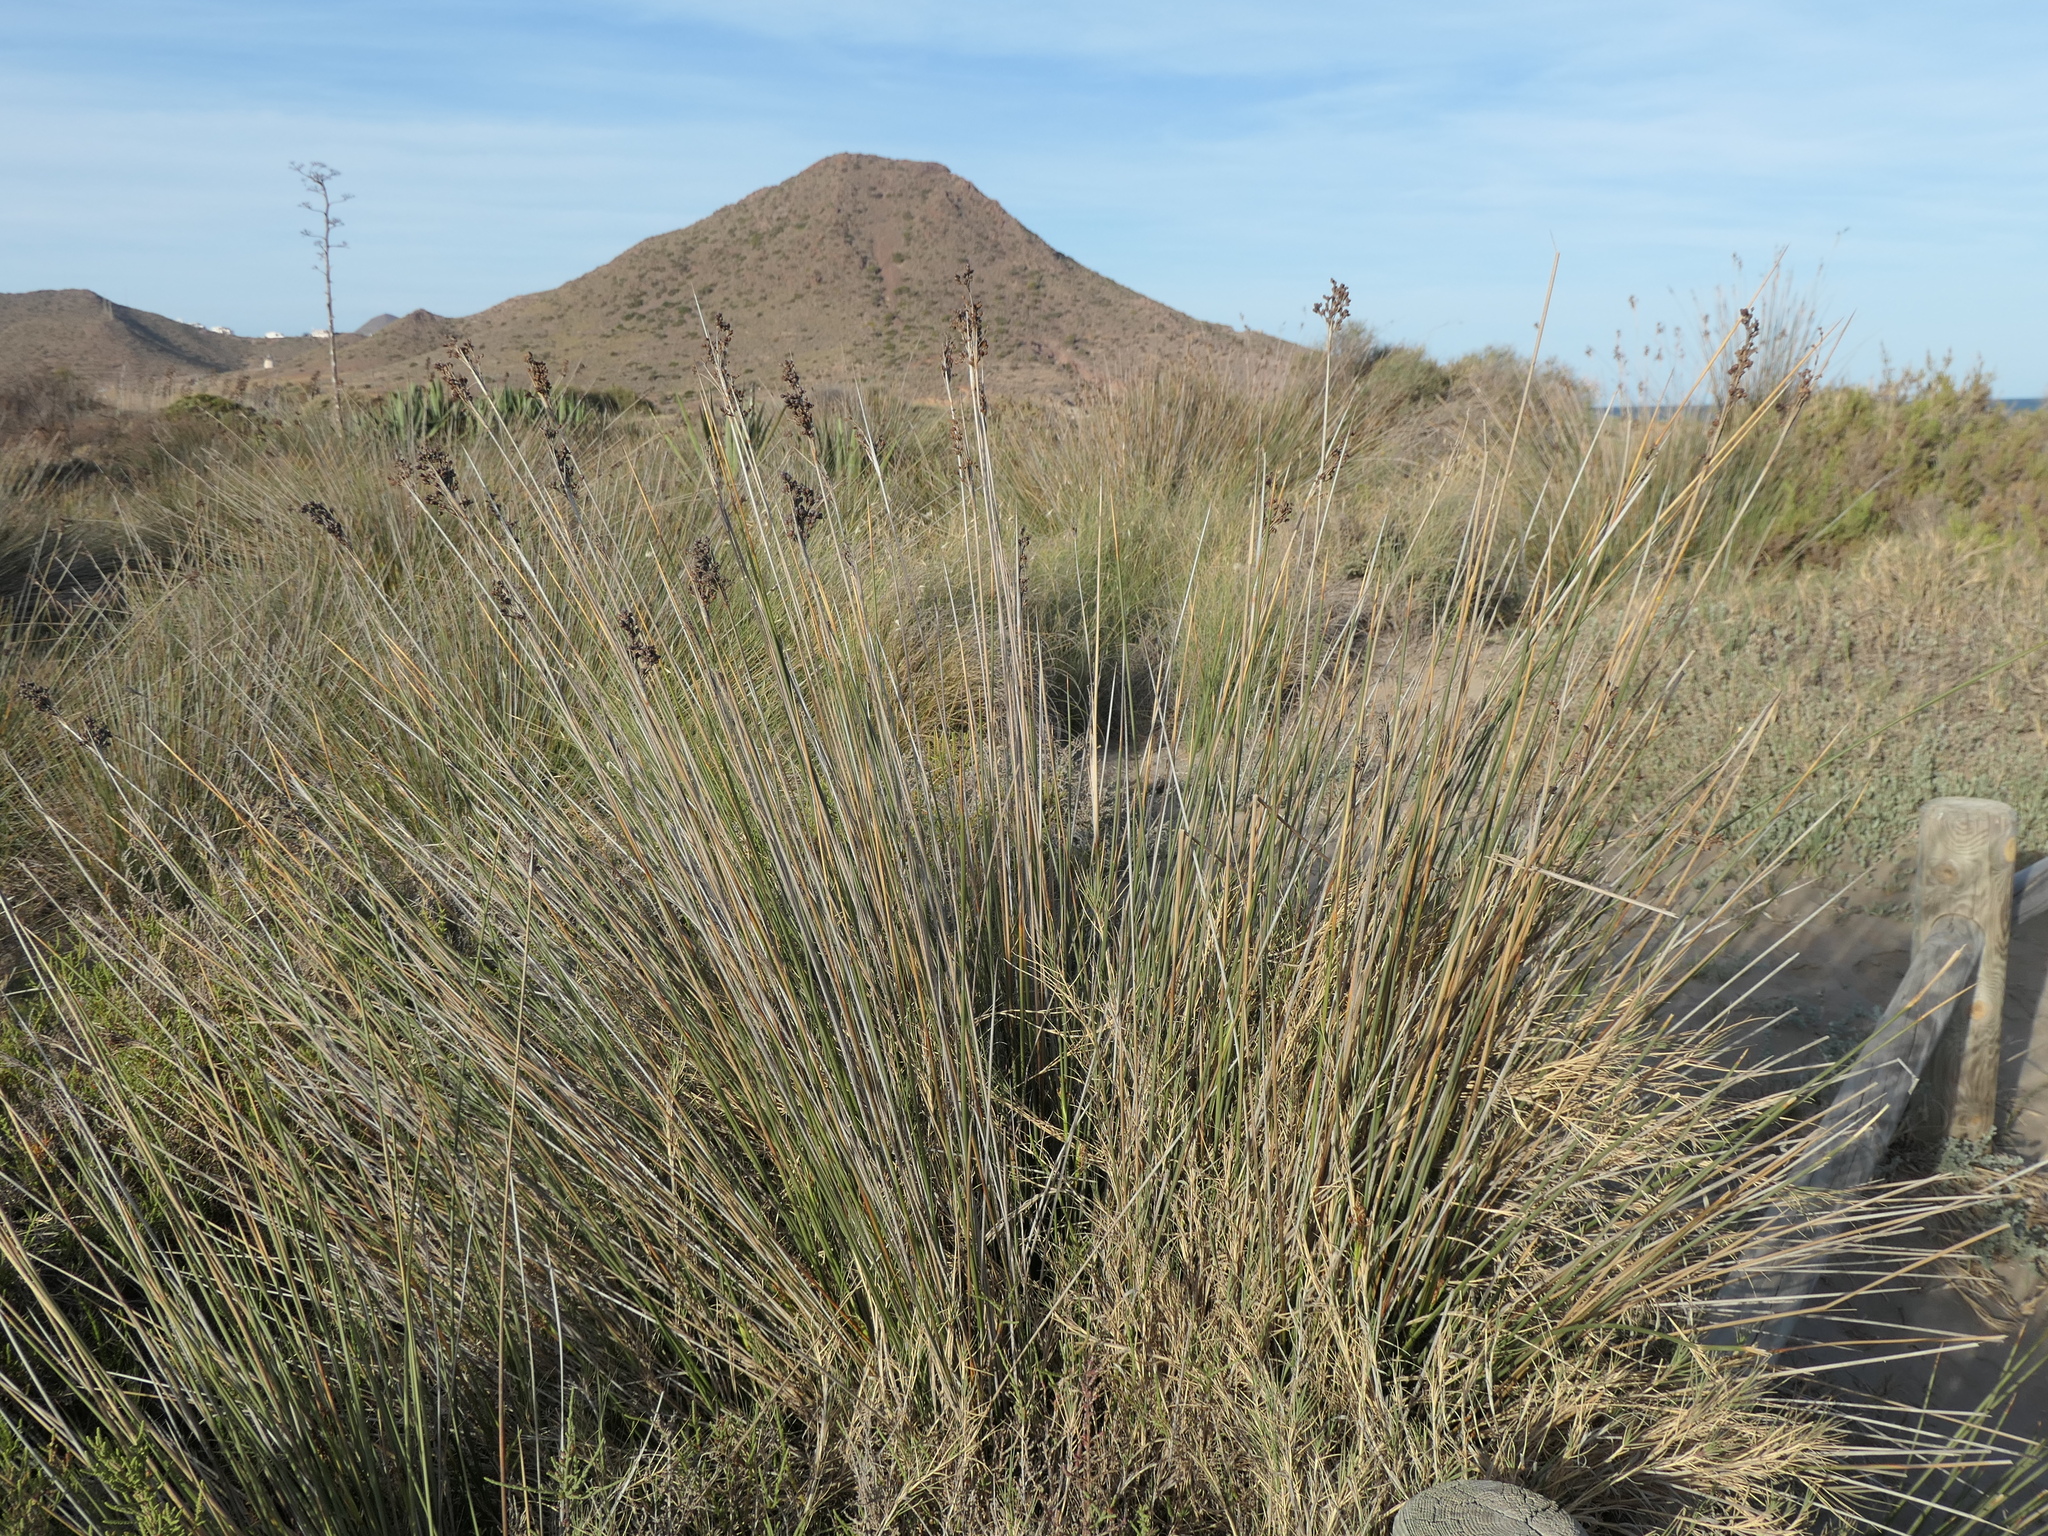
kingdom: Plantae
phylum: Tracheophyta
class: Liliopsida
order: Poales
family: Juncaceae
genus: Juncus
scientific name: Juncus acutus
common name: Sharp rush
